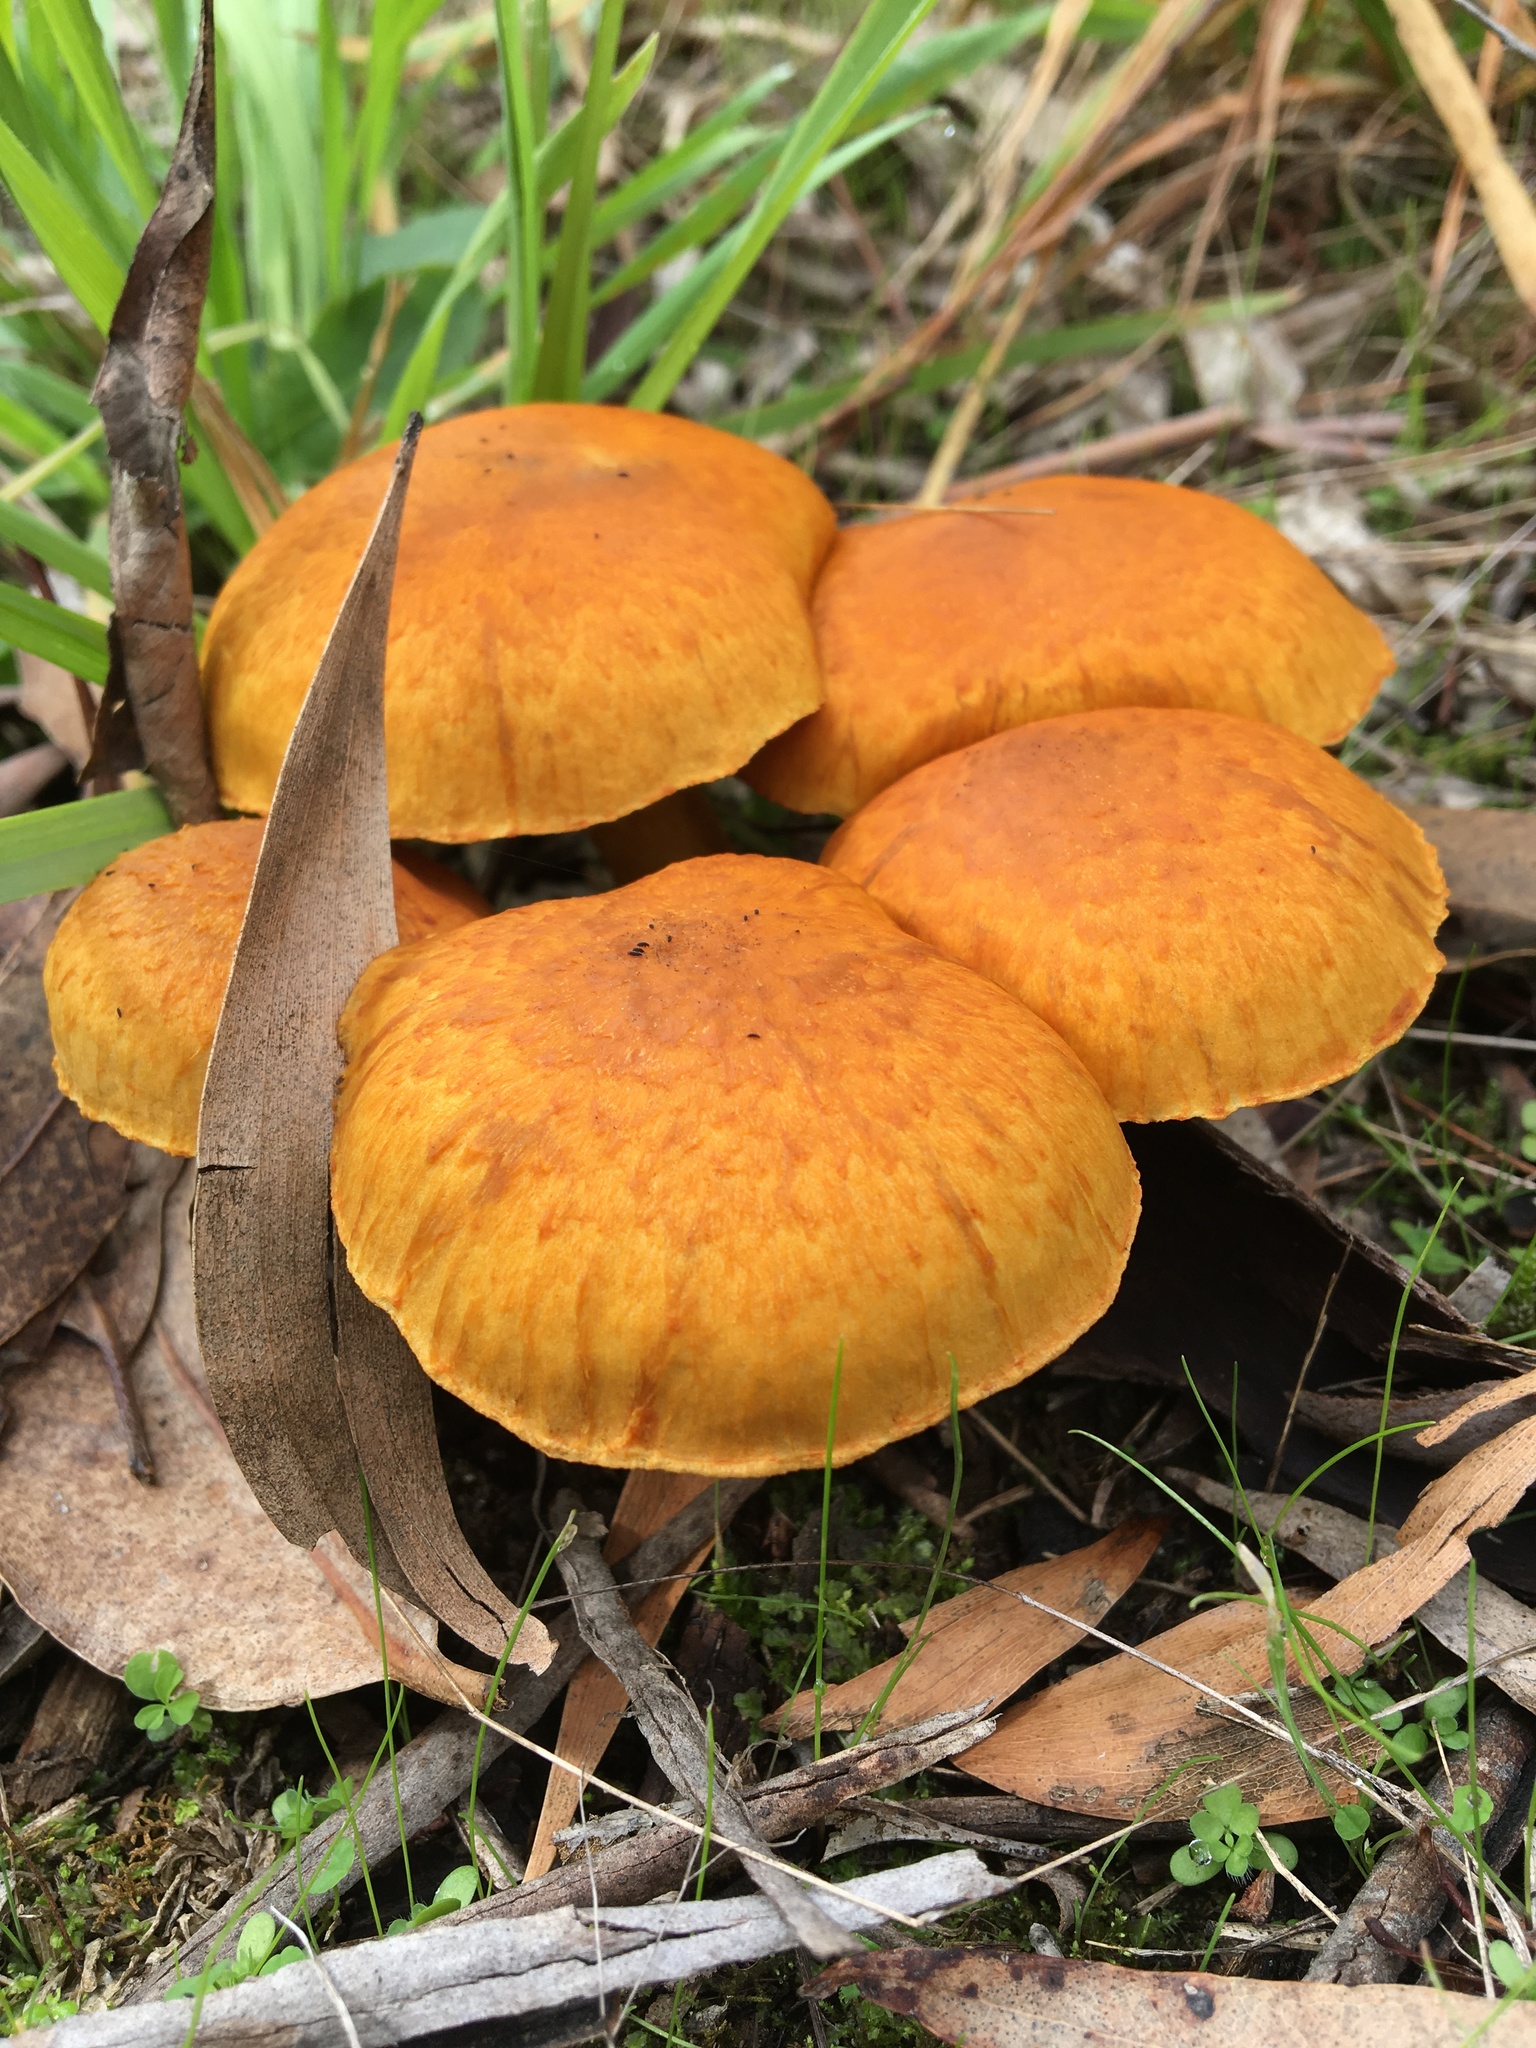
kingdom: Fungi
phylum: Basidiomycota
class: Agaricomycetes
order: Agaricales
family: Hymenogastraceae
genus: Gymnopilus
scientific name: Gymnopilus junonius
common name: Spectacular rustgill
